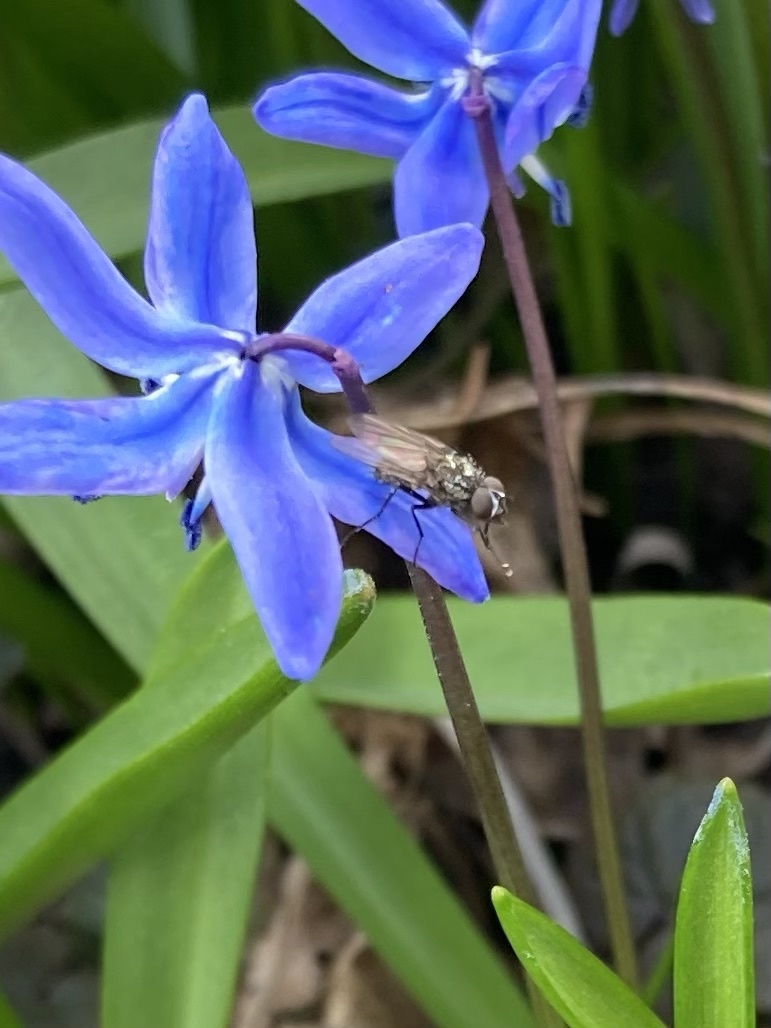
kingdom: Plantae
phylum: Tracheophyta
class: Liliopsida
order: Asparagales
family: Asparagaceae
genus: Scilla
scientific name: Scilla siberica
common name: Siberian squill
